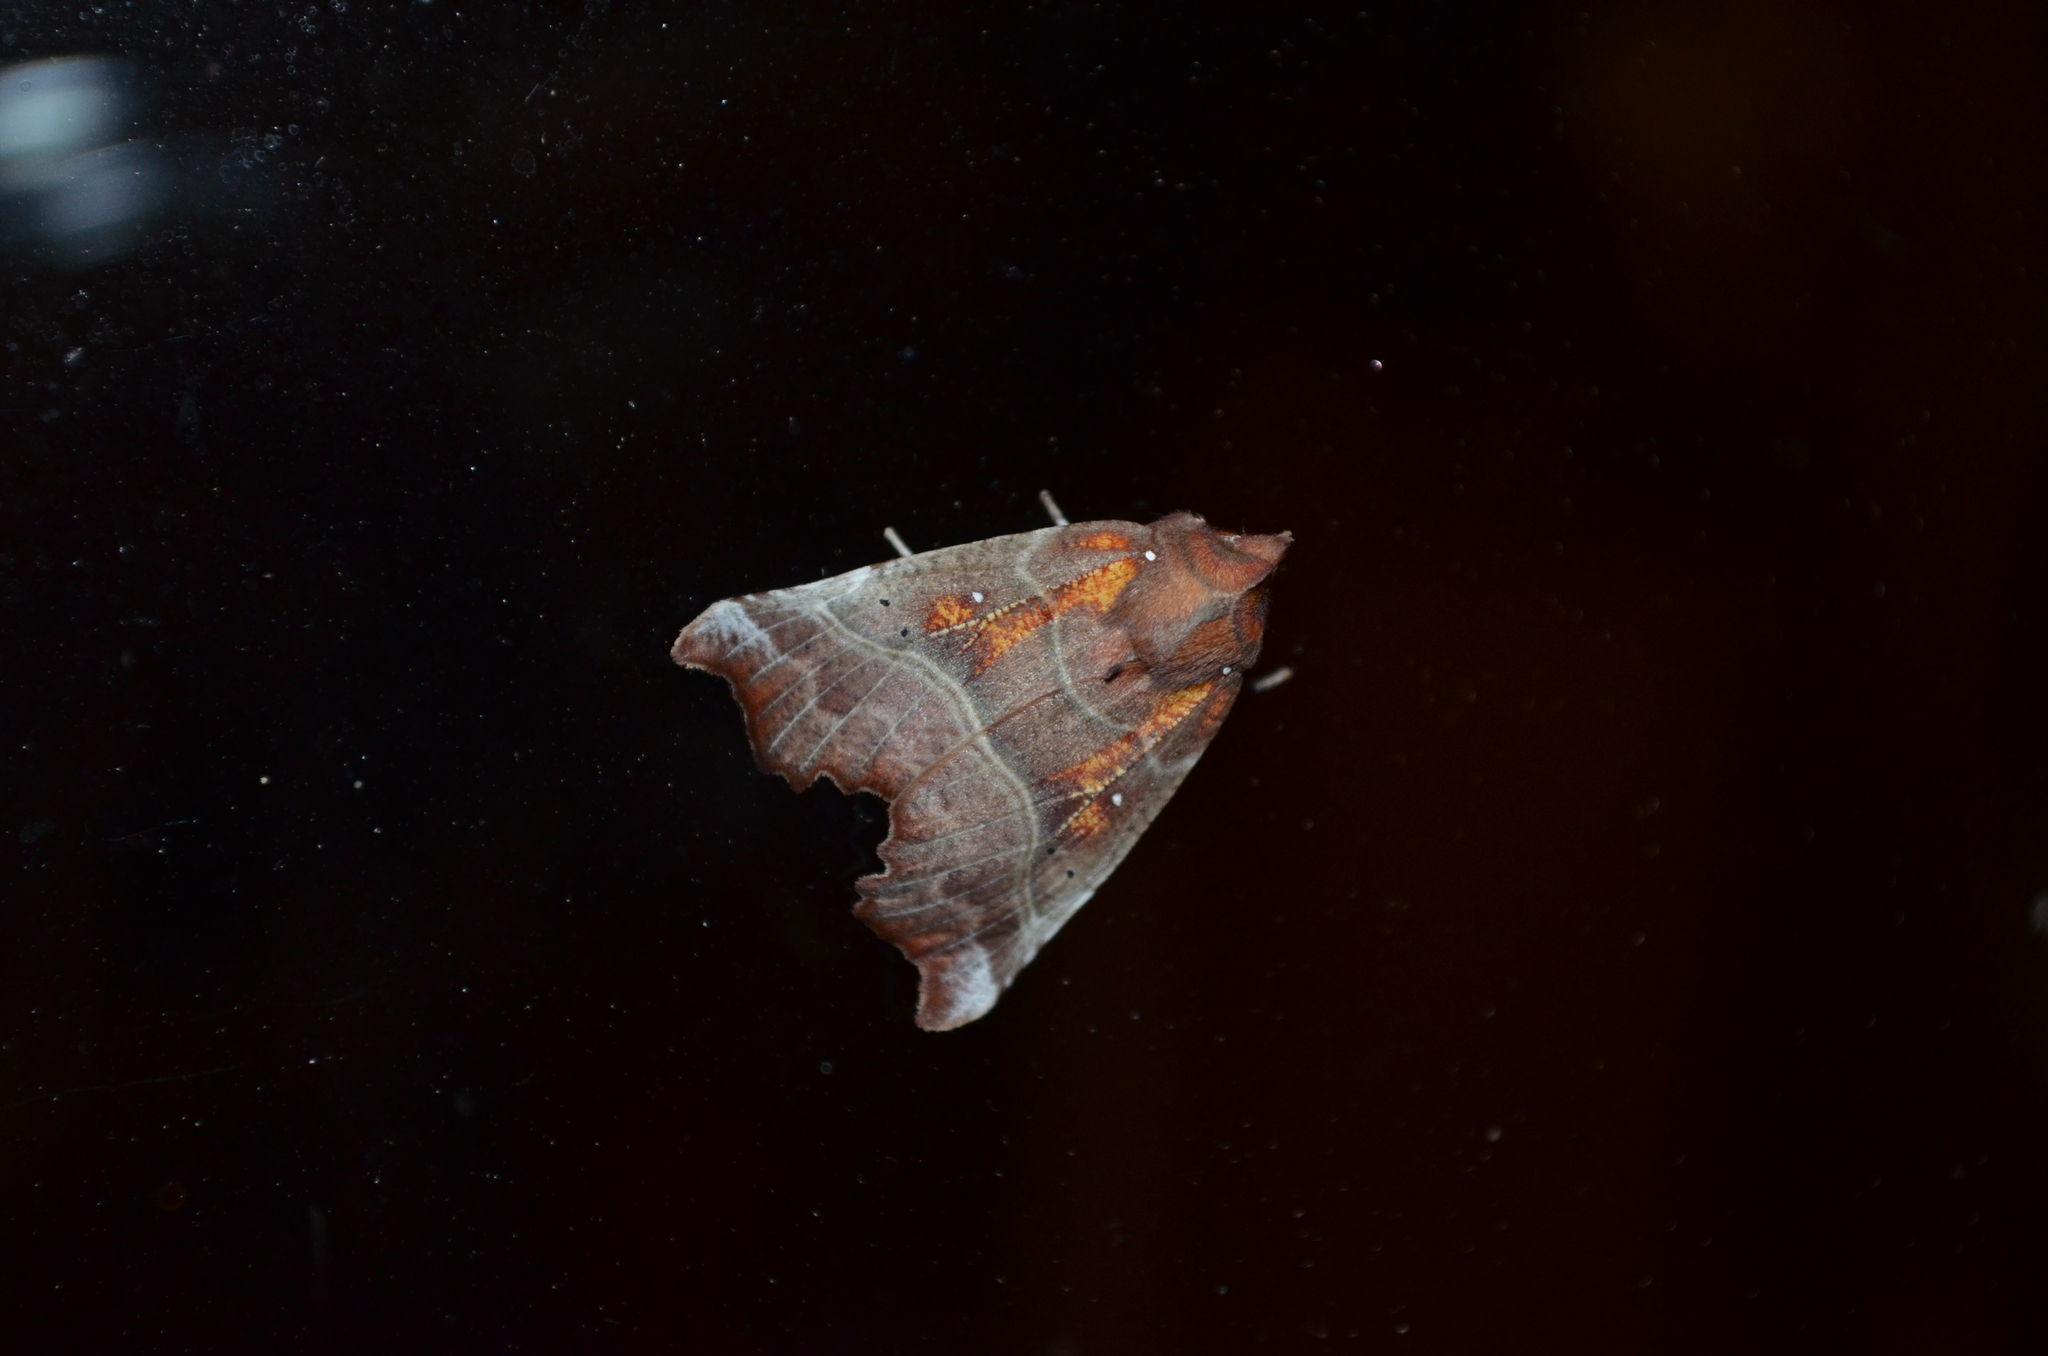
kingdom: Animalia
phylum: Arthropoda
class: Insecta
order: Lepidoptera
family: Erebidae
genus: Scoliopteryx
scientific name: Scoliopteryx libatrix
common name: Herald
